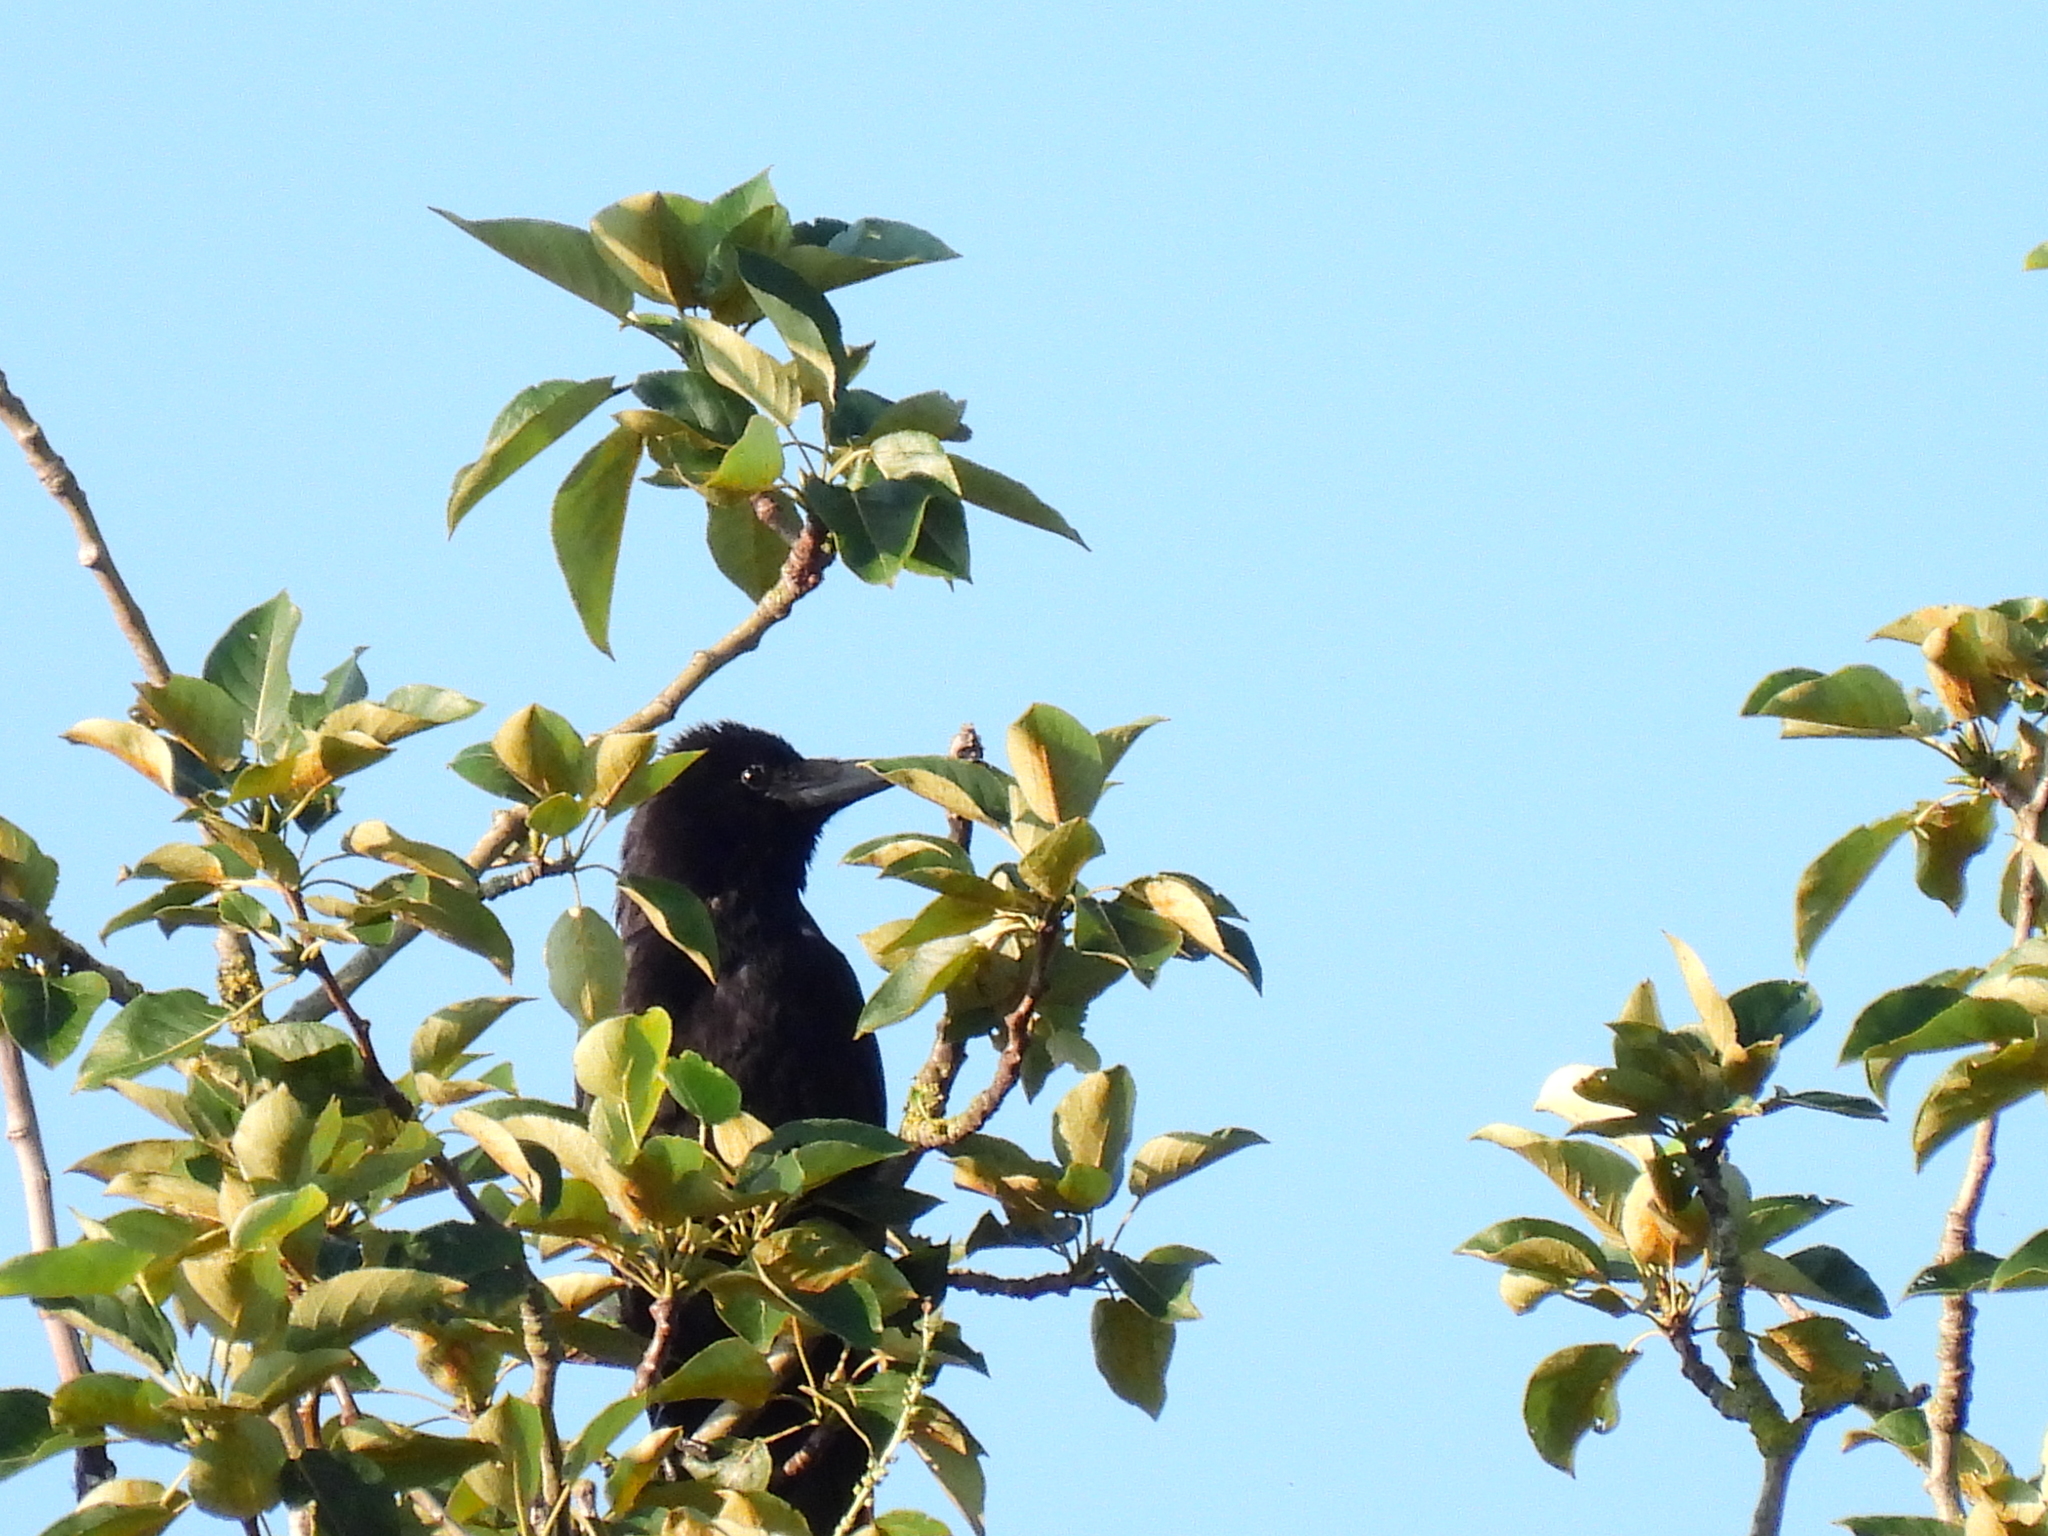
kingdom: Animalia
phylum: Chordata
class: Aves
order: Passeriformes
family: Corvidae
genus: Corvus
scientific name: Corvus corone
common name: Carrion crow
